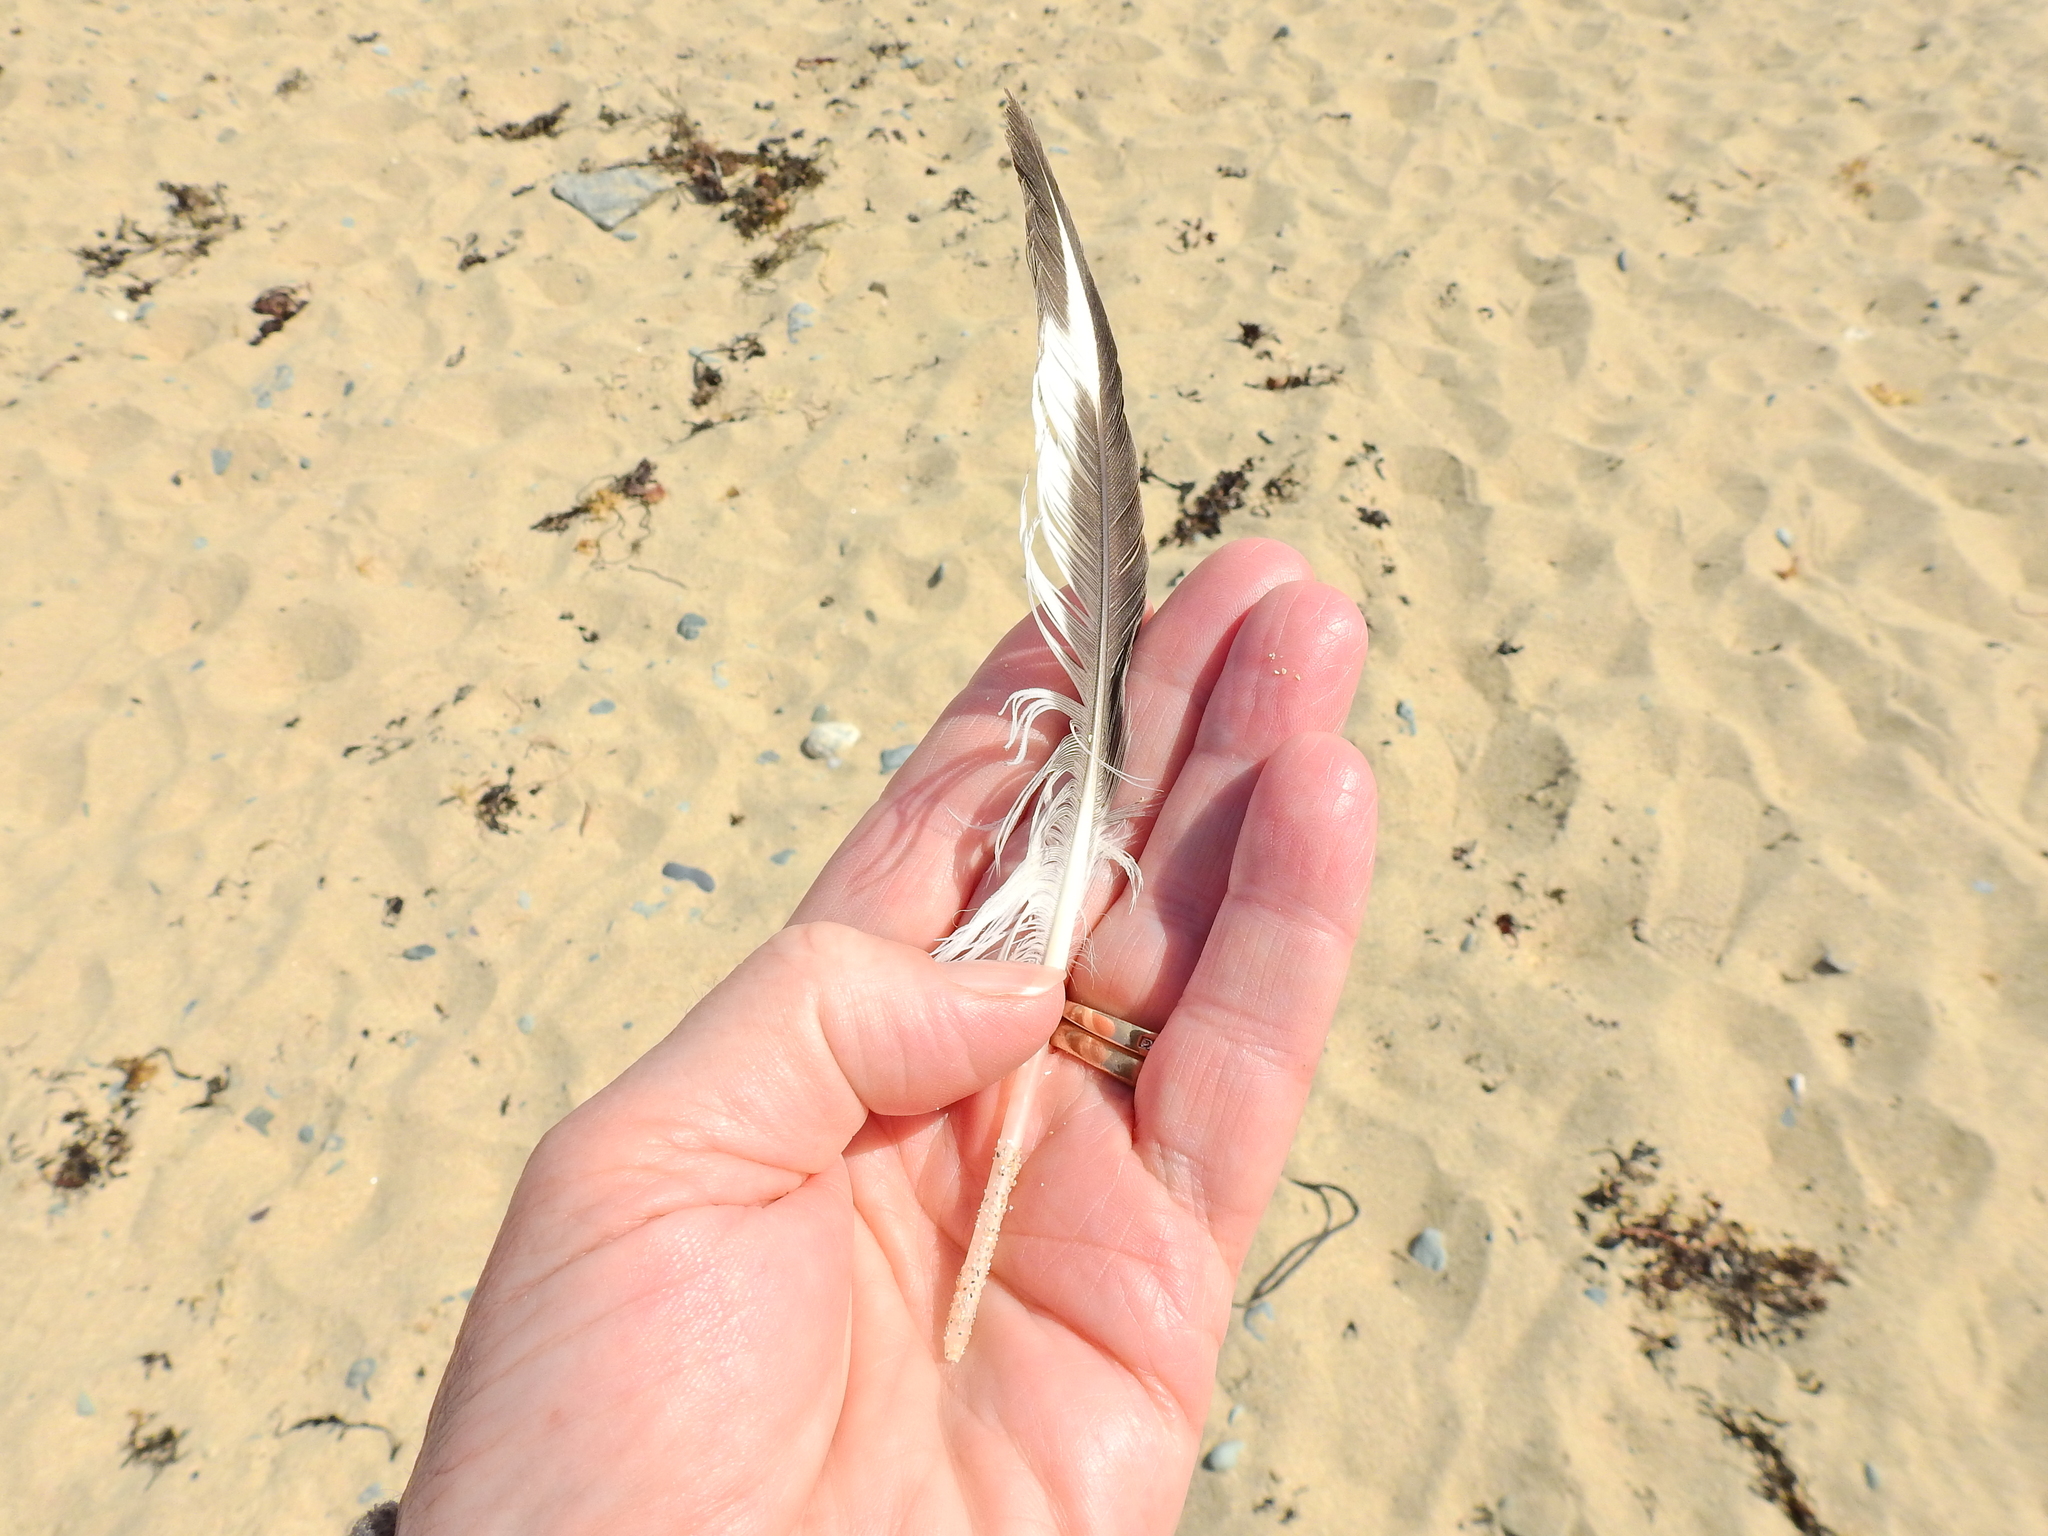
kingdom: Animalia
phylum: Chordata
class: Aves
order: Charadriiformes
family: Haematopodidae
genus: Haematopus
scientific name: Haematopus ostralegus
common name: Eurasian oystercatcher
